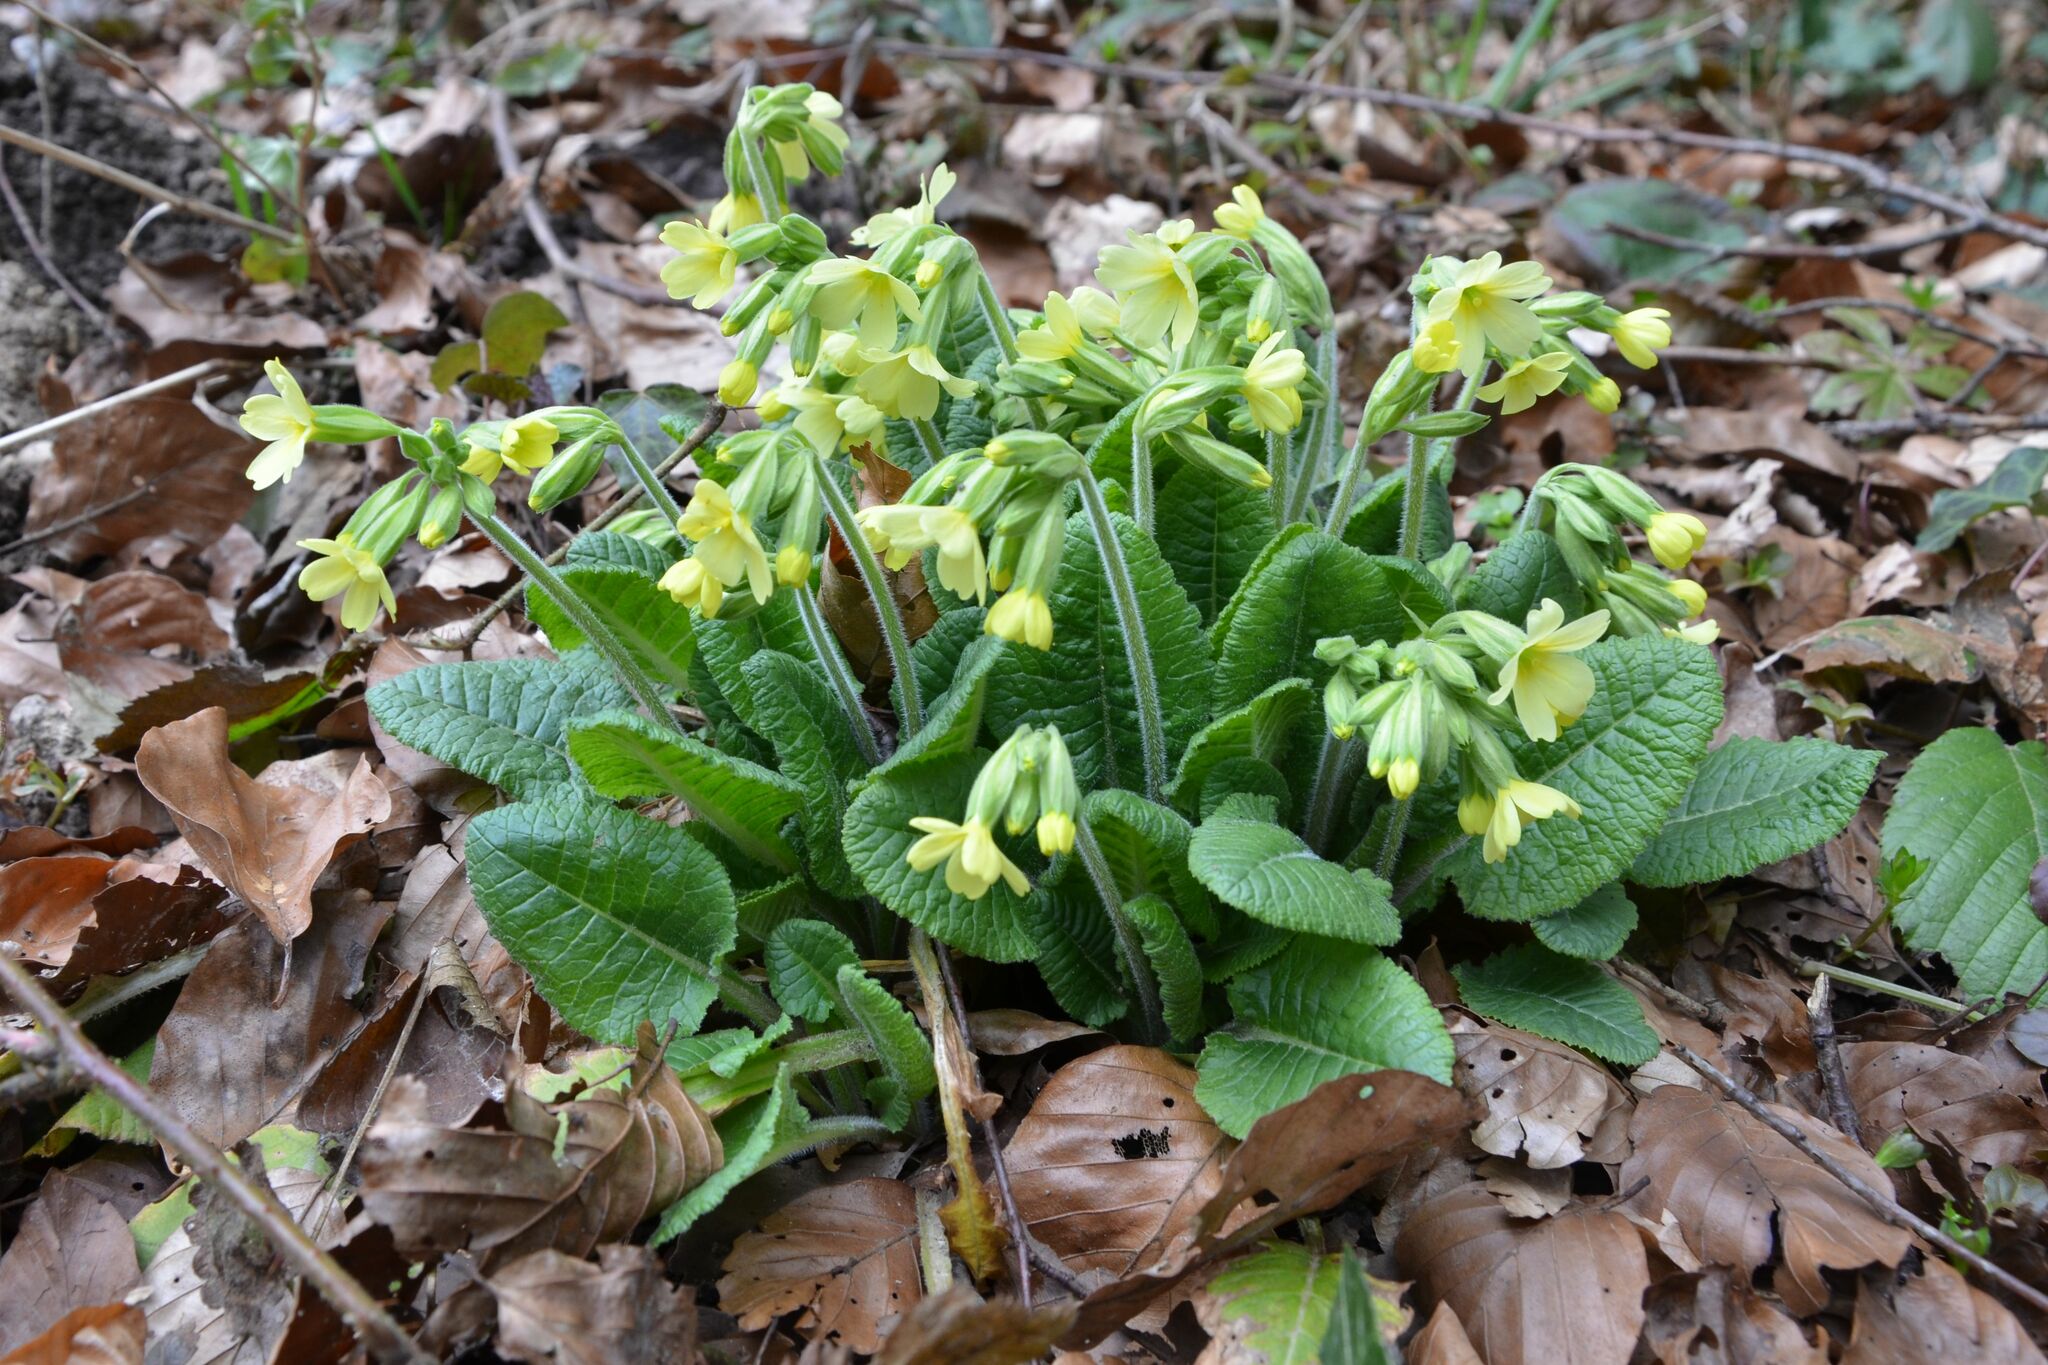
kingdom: Plantae
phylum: Tracheophyta
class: Magnoliopsida
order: Ericales
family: Primulaceae
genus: Primula
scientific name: Primula elatior
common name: Oxlip
